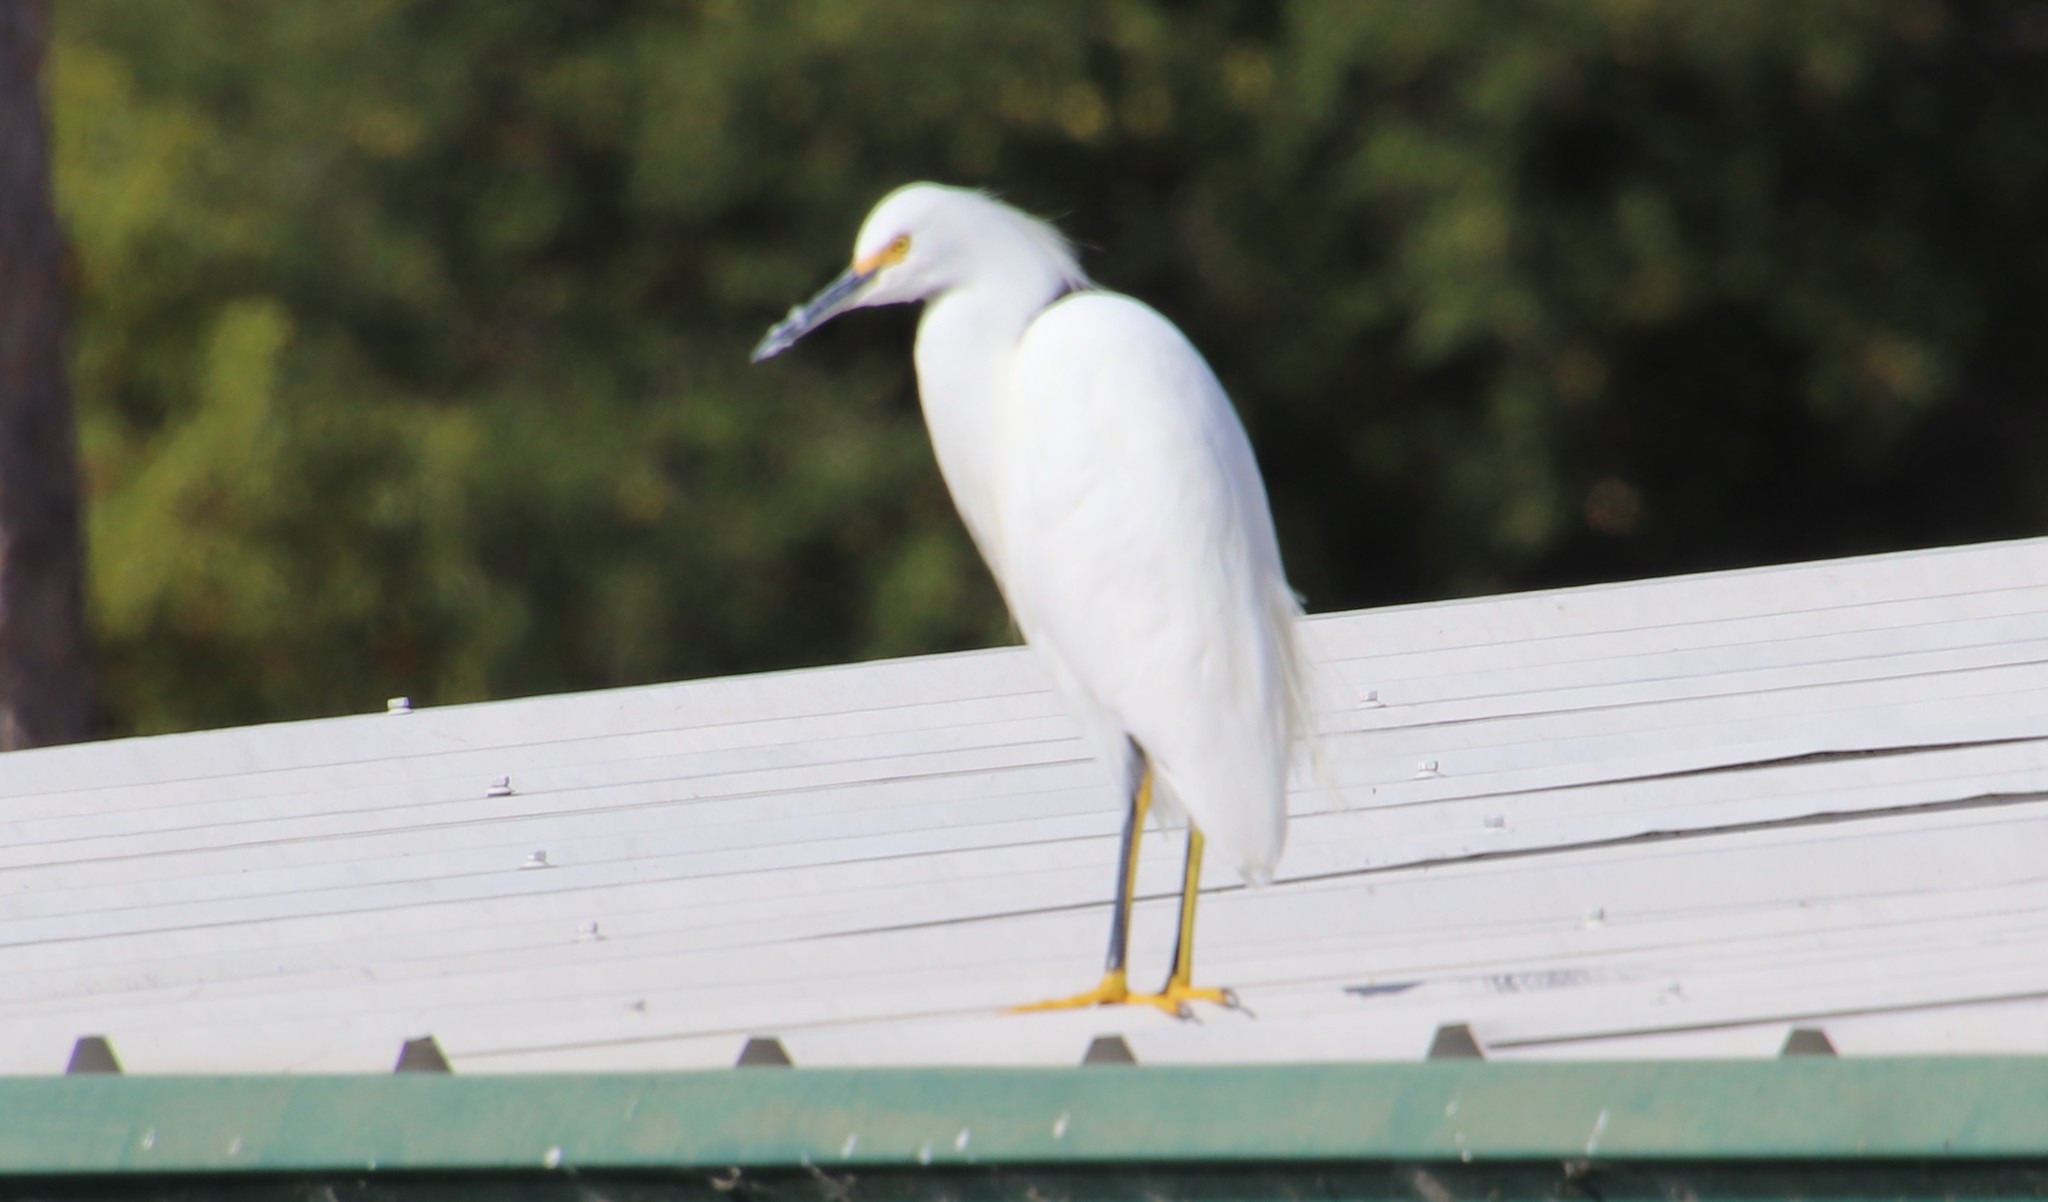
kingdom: Animalia
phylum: Chordata
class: Aves
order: Pelecaniformes
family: Ardeidae
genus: Egretta
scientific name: Egretta thula
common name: Snowy egret
